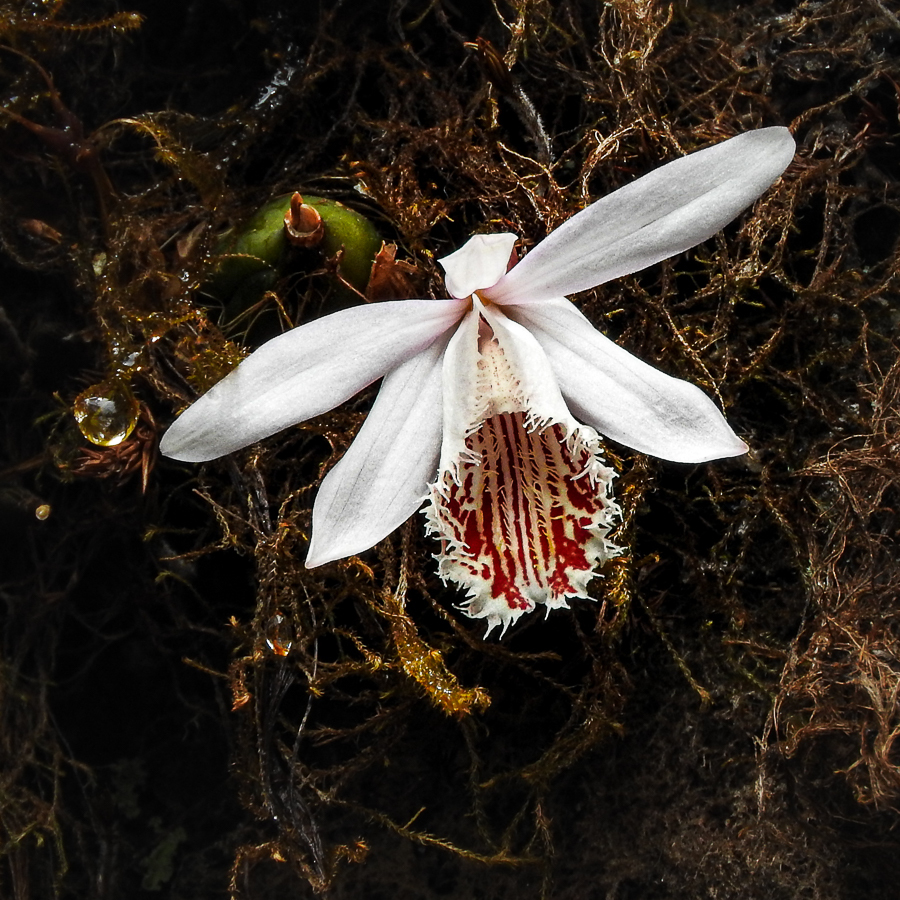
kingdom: Plantae
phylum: Tracheophyta
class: Liliopsida
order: Asparagales
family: Orchidaceae
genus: Pleione
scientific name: Pleione humilis
